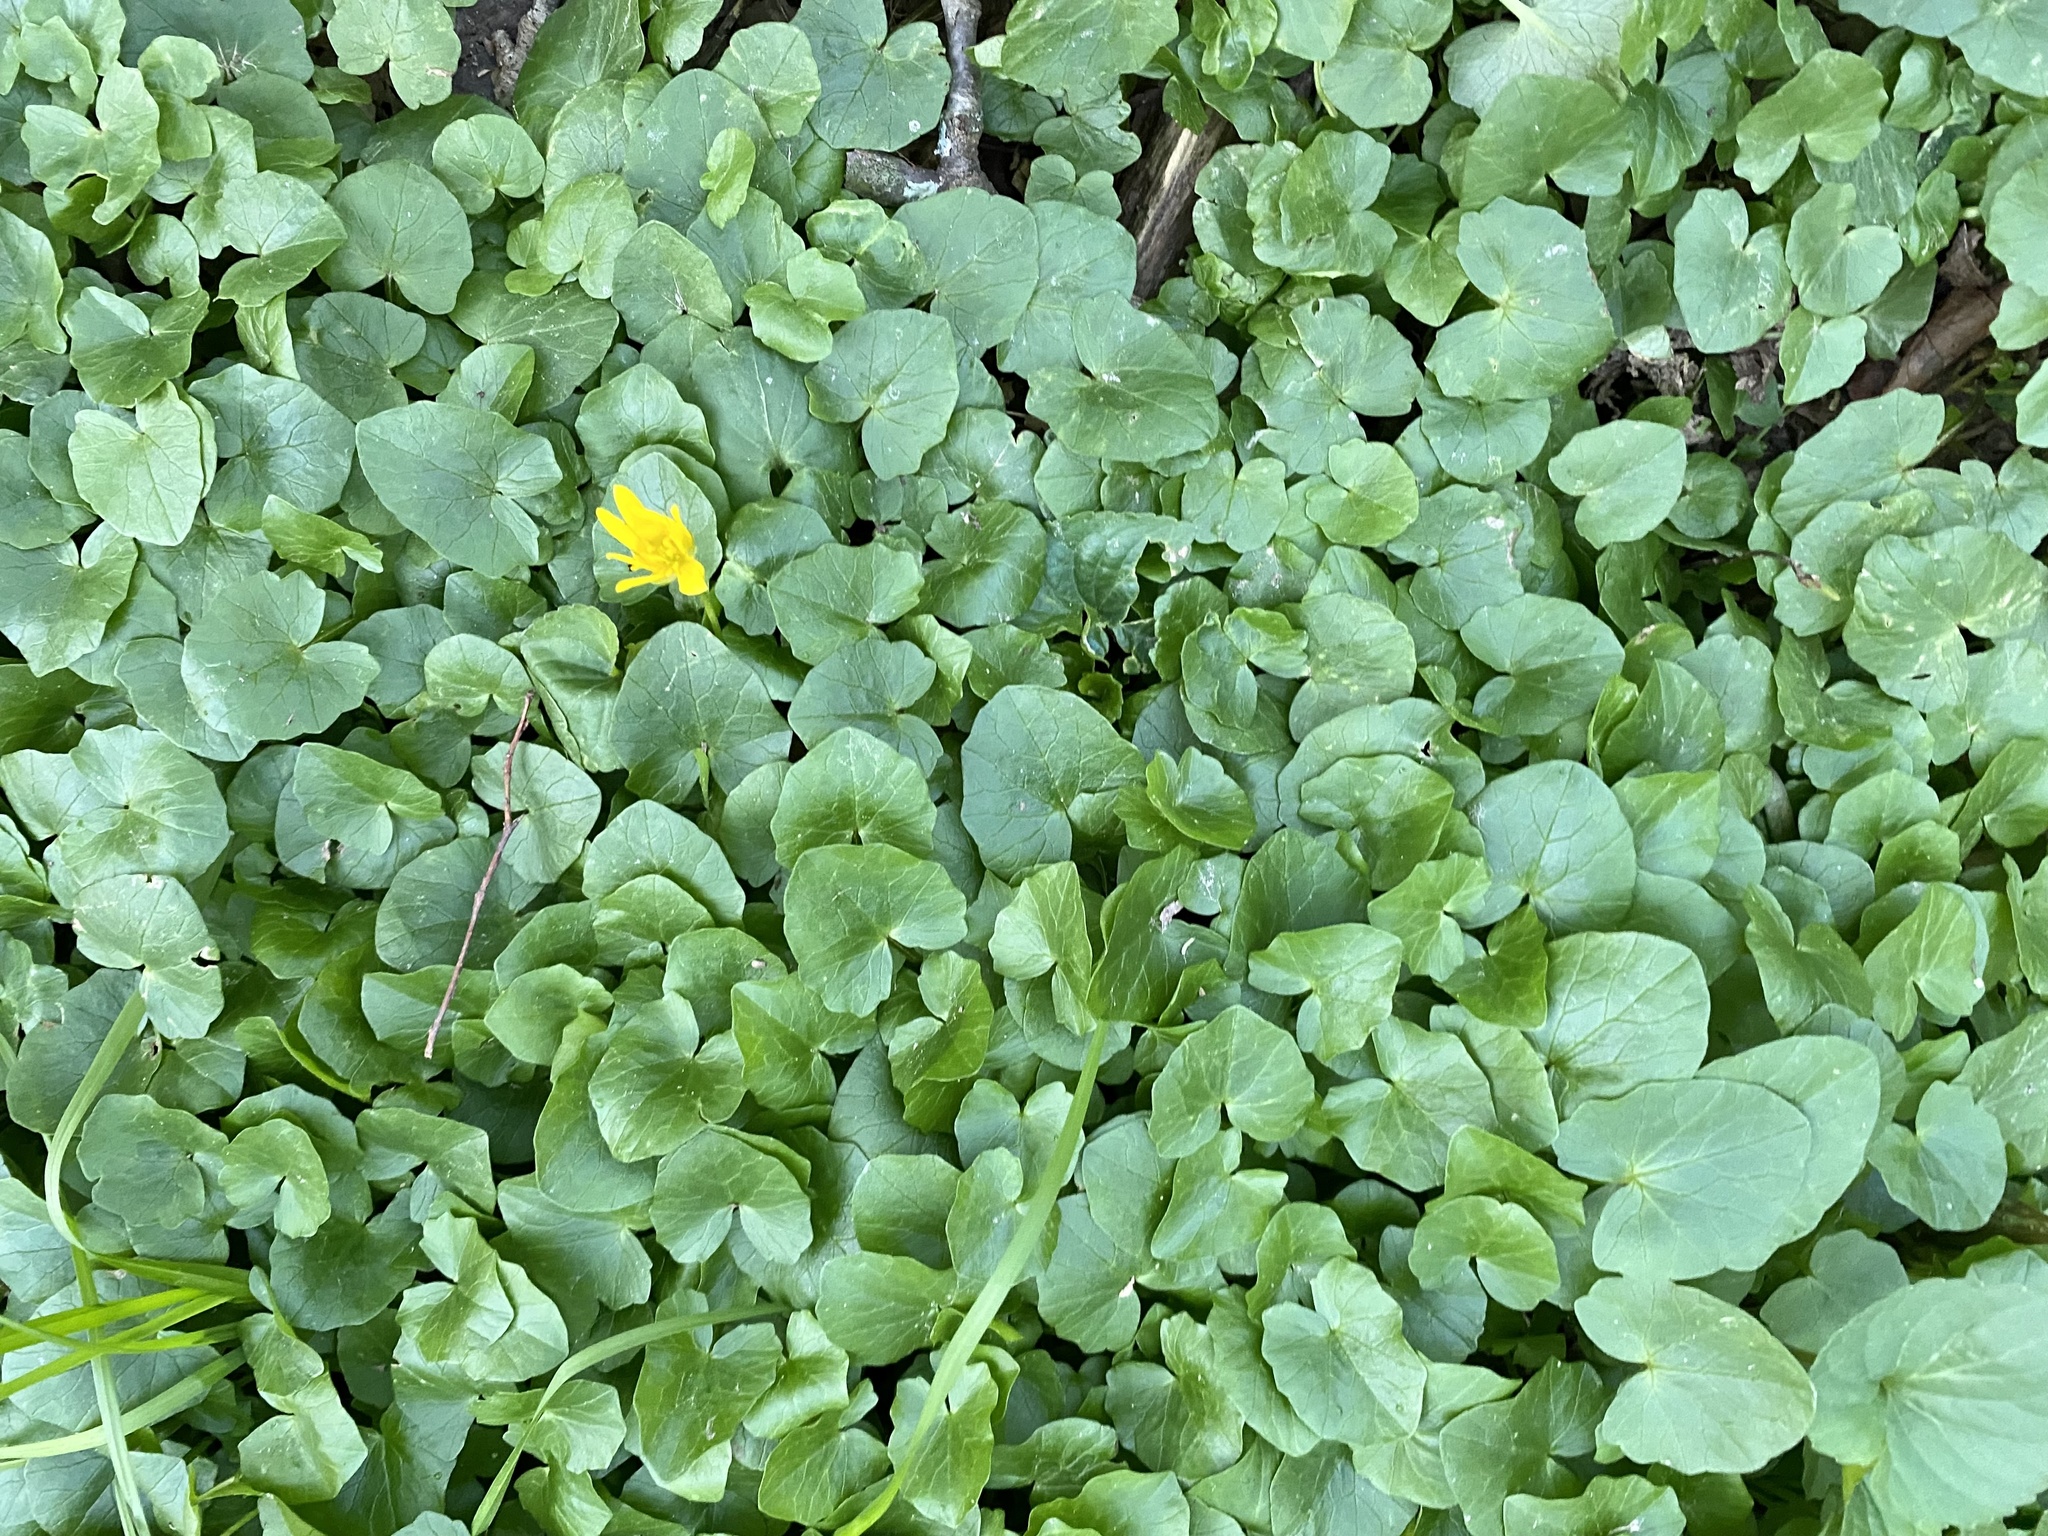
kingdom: Plantae
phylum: Tracheophyta
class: Magnoliopsida
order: Ranunculales
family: Ranunculaceae
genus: Ficaria
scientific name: Ficaria verna
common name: Lesser celandine
